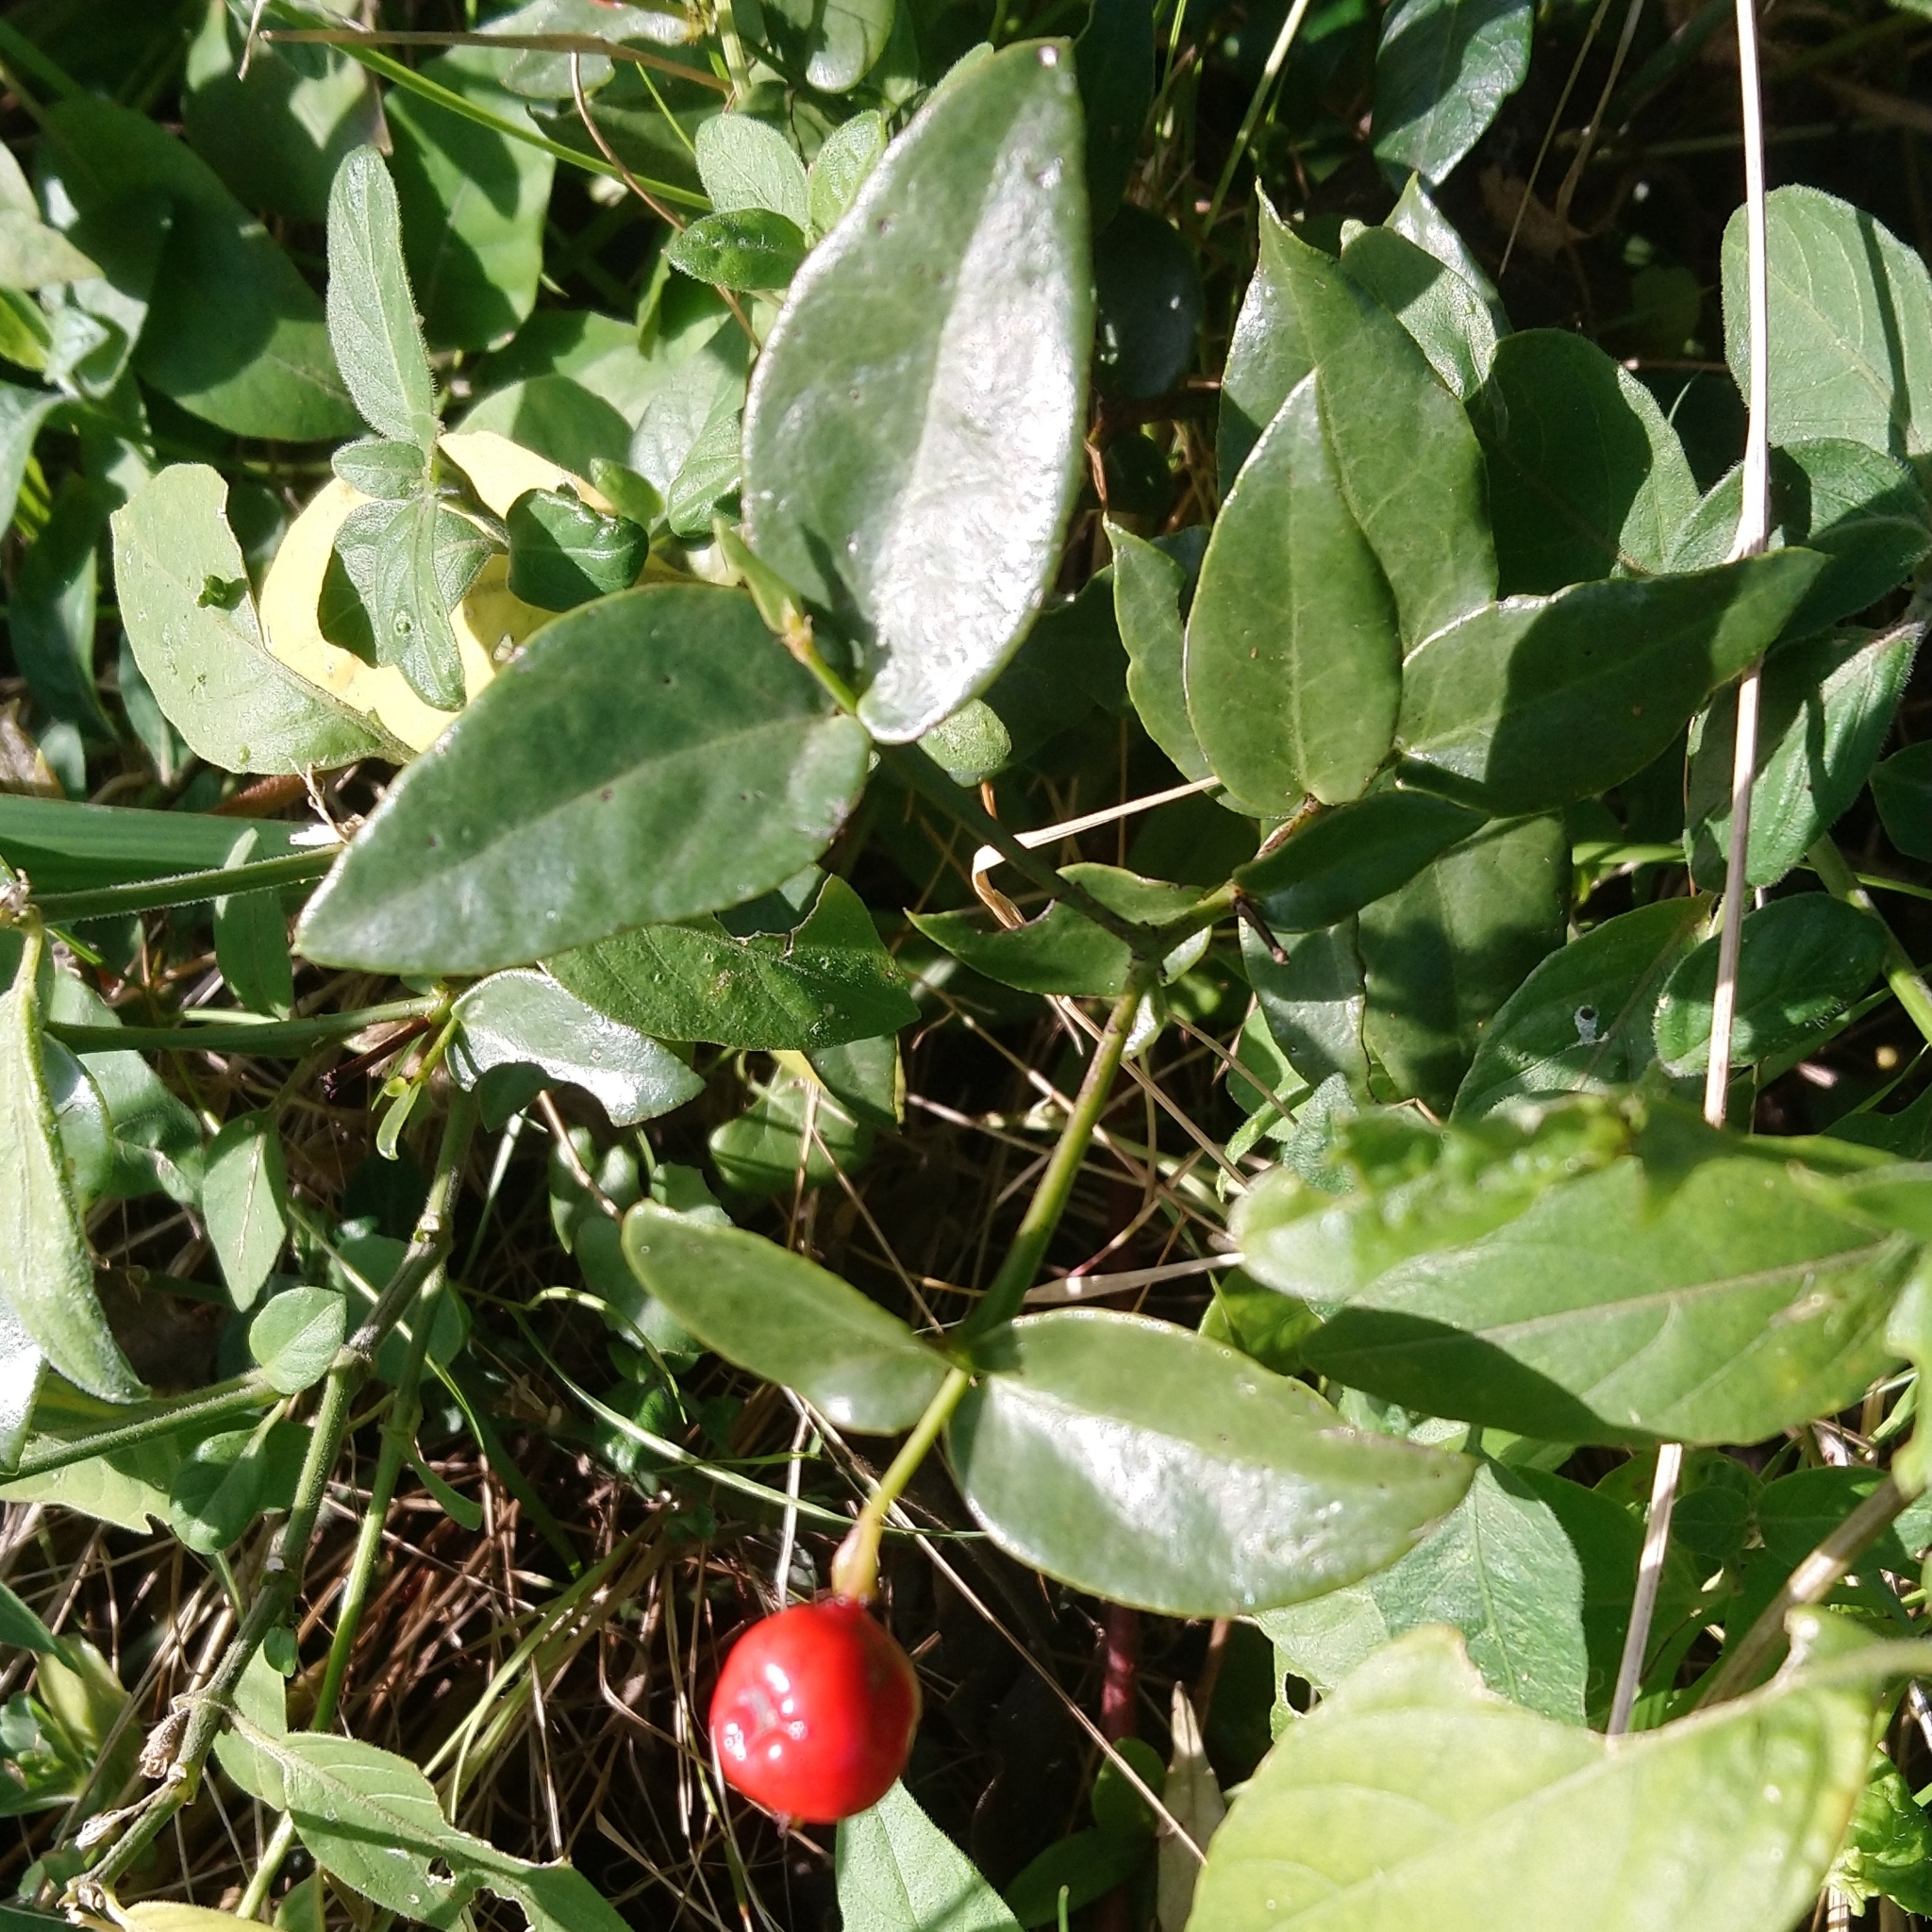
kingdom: Plantae
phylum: Tracheophyta
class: Magnoliopsida
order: Santalales
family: Santalaceae
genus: Rhoiacarpos
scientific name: Rhoiacarpos capensis
